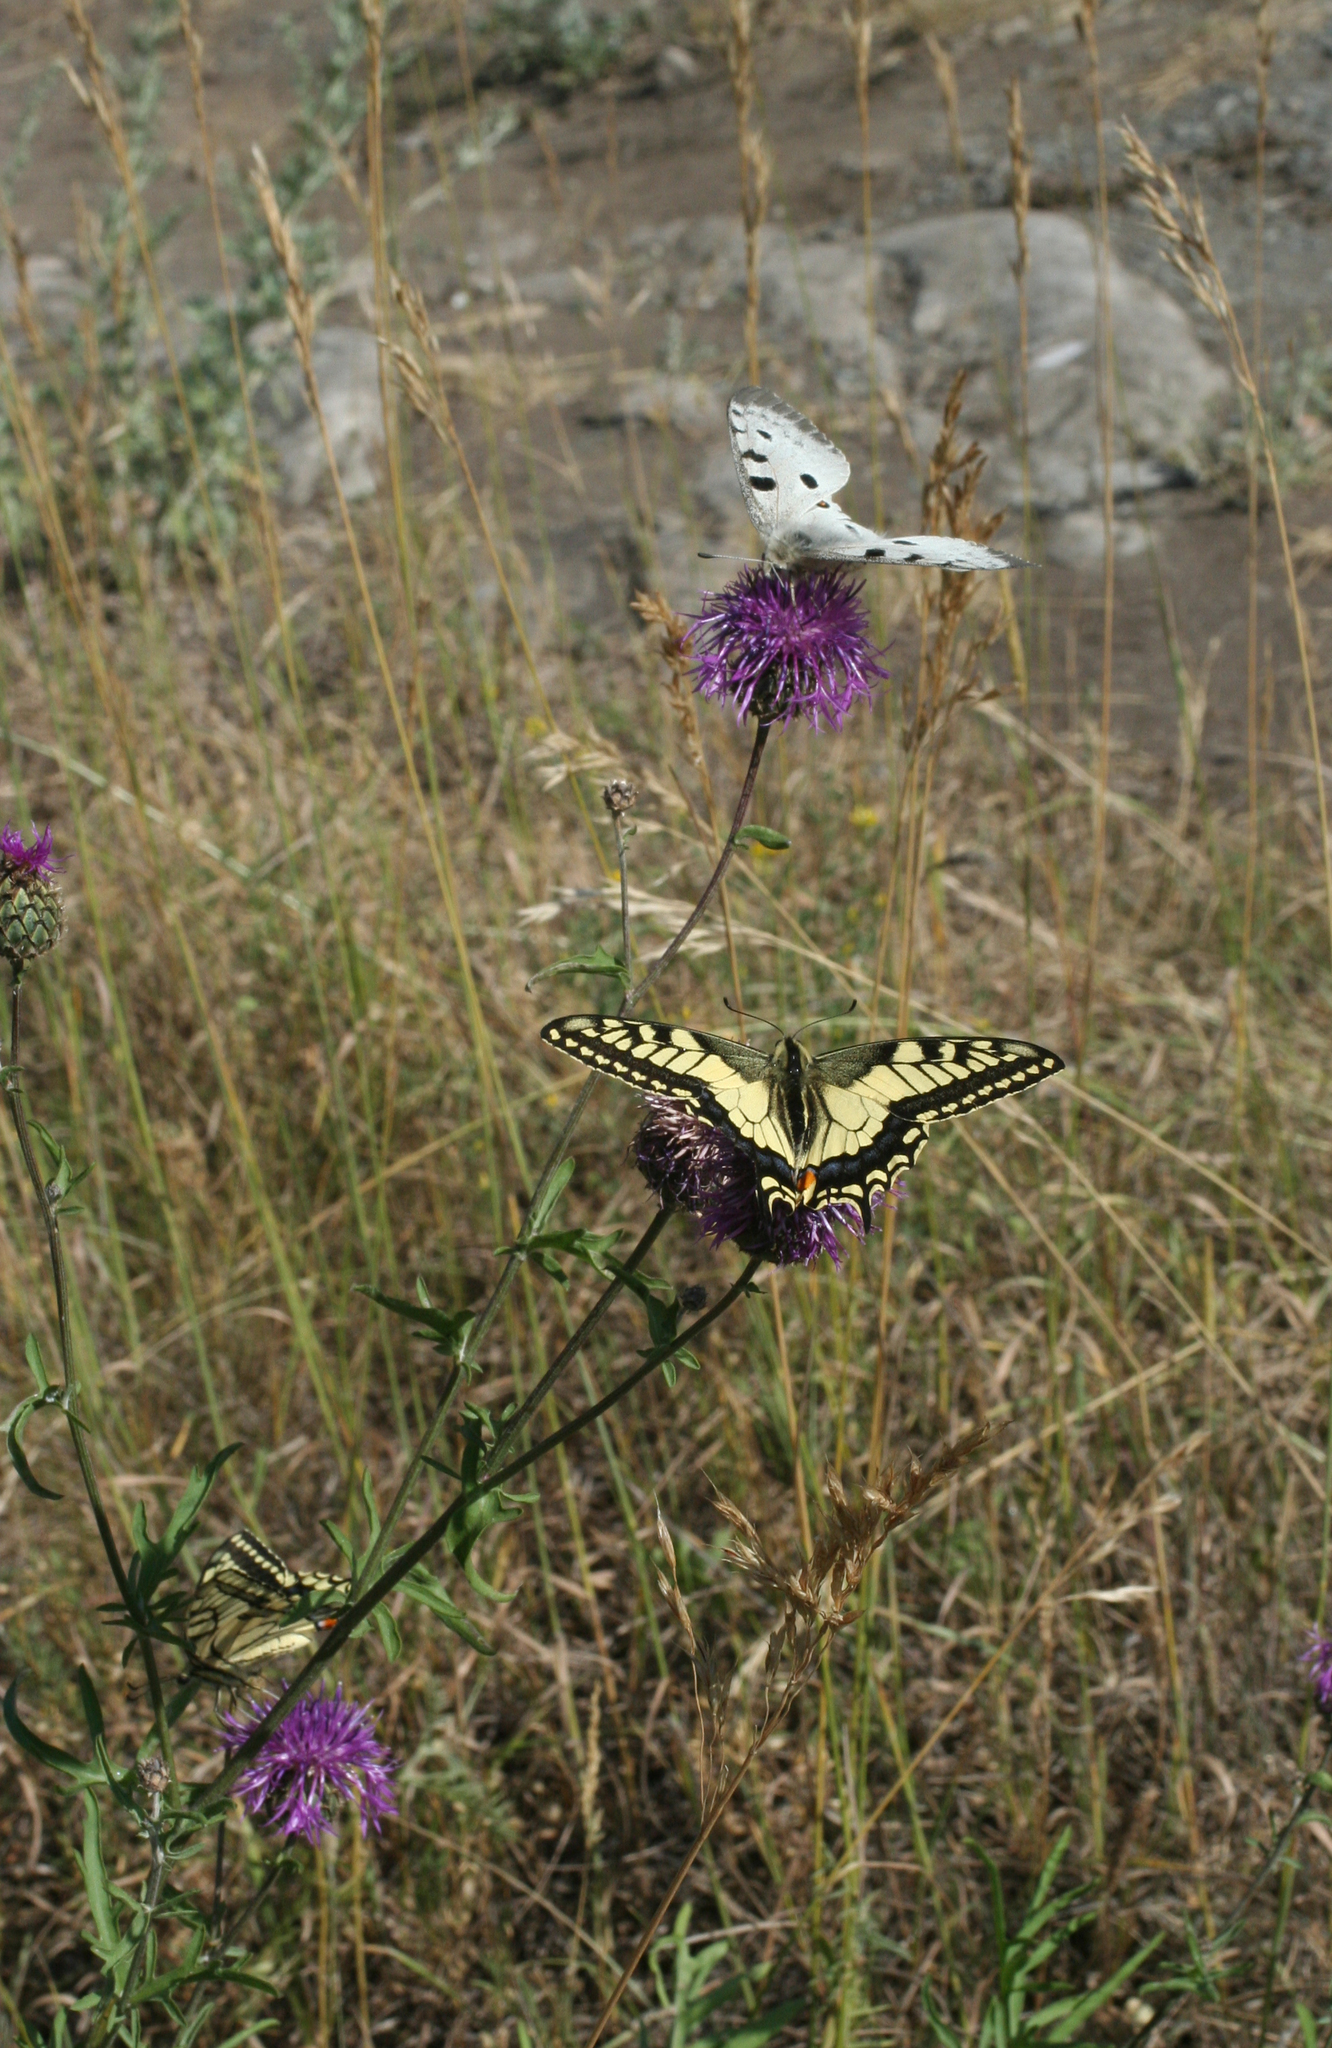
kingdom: Animalia
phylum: Arthropoda
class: Insecta
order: Lepidoptera
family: Papilionidae
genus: Papilio
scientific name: Papilio machaon
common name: Swallowtail
